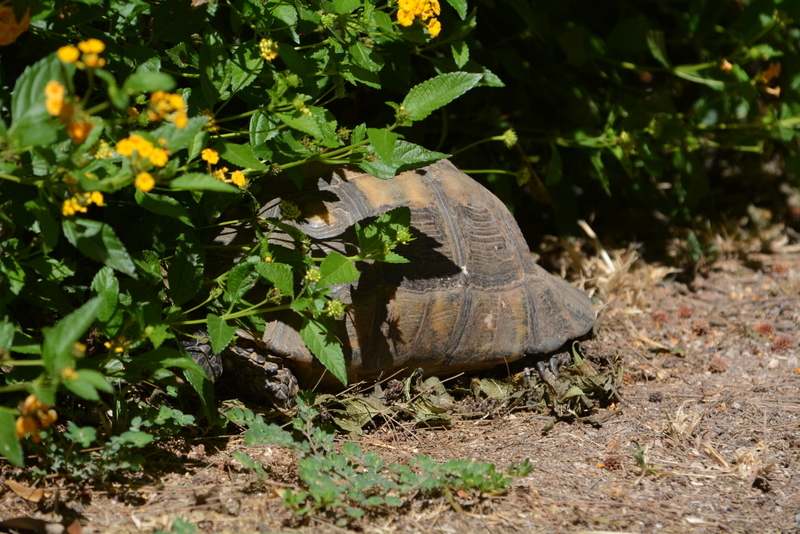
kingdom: Animalia
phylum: Chordata
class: Testudines
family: Testudinidae
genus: Testudo
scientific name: Testudo marginata
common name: Marginated tortoise
